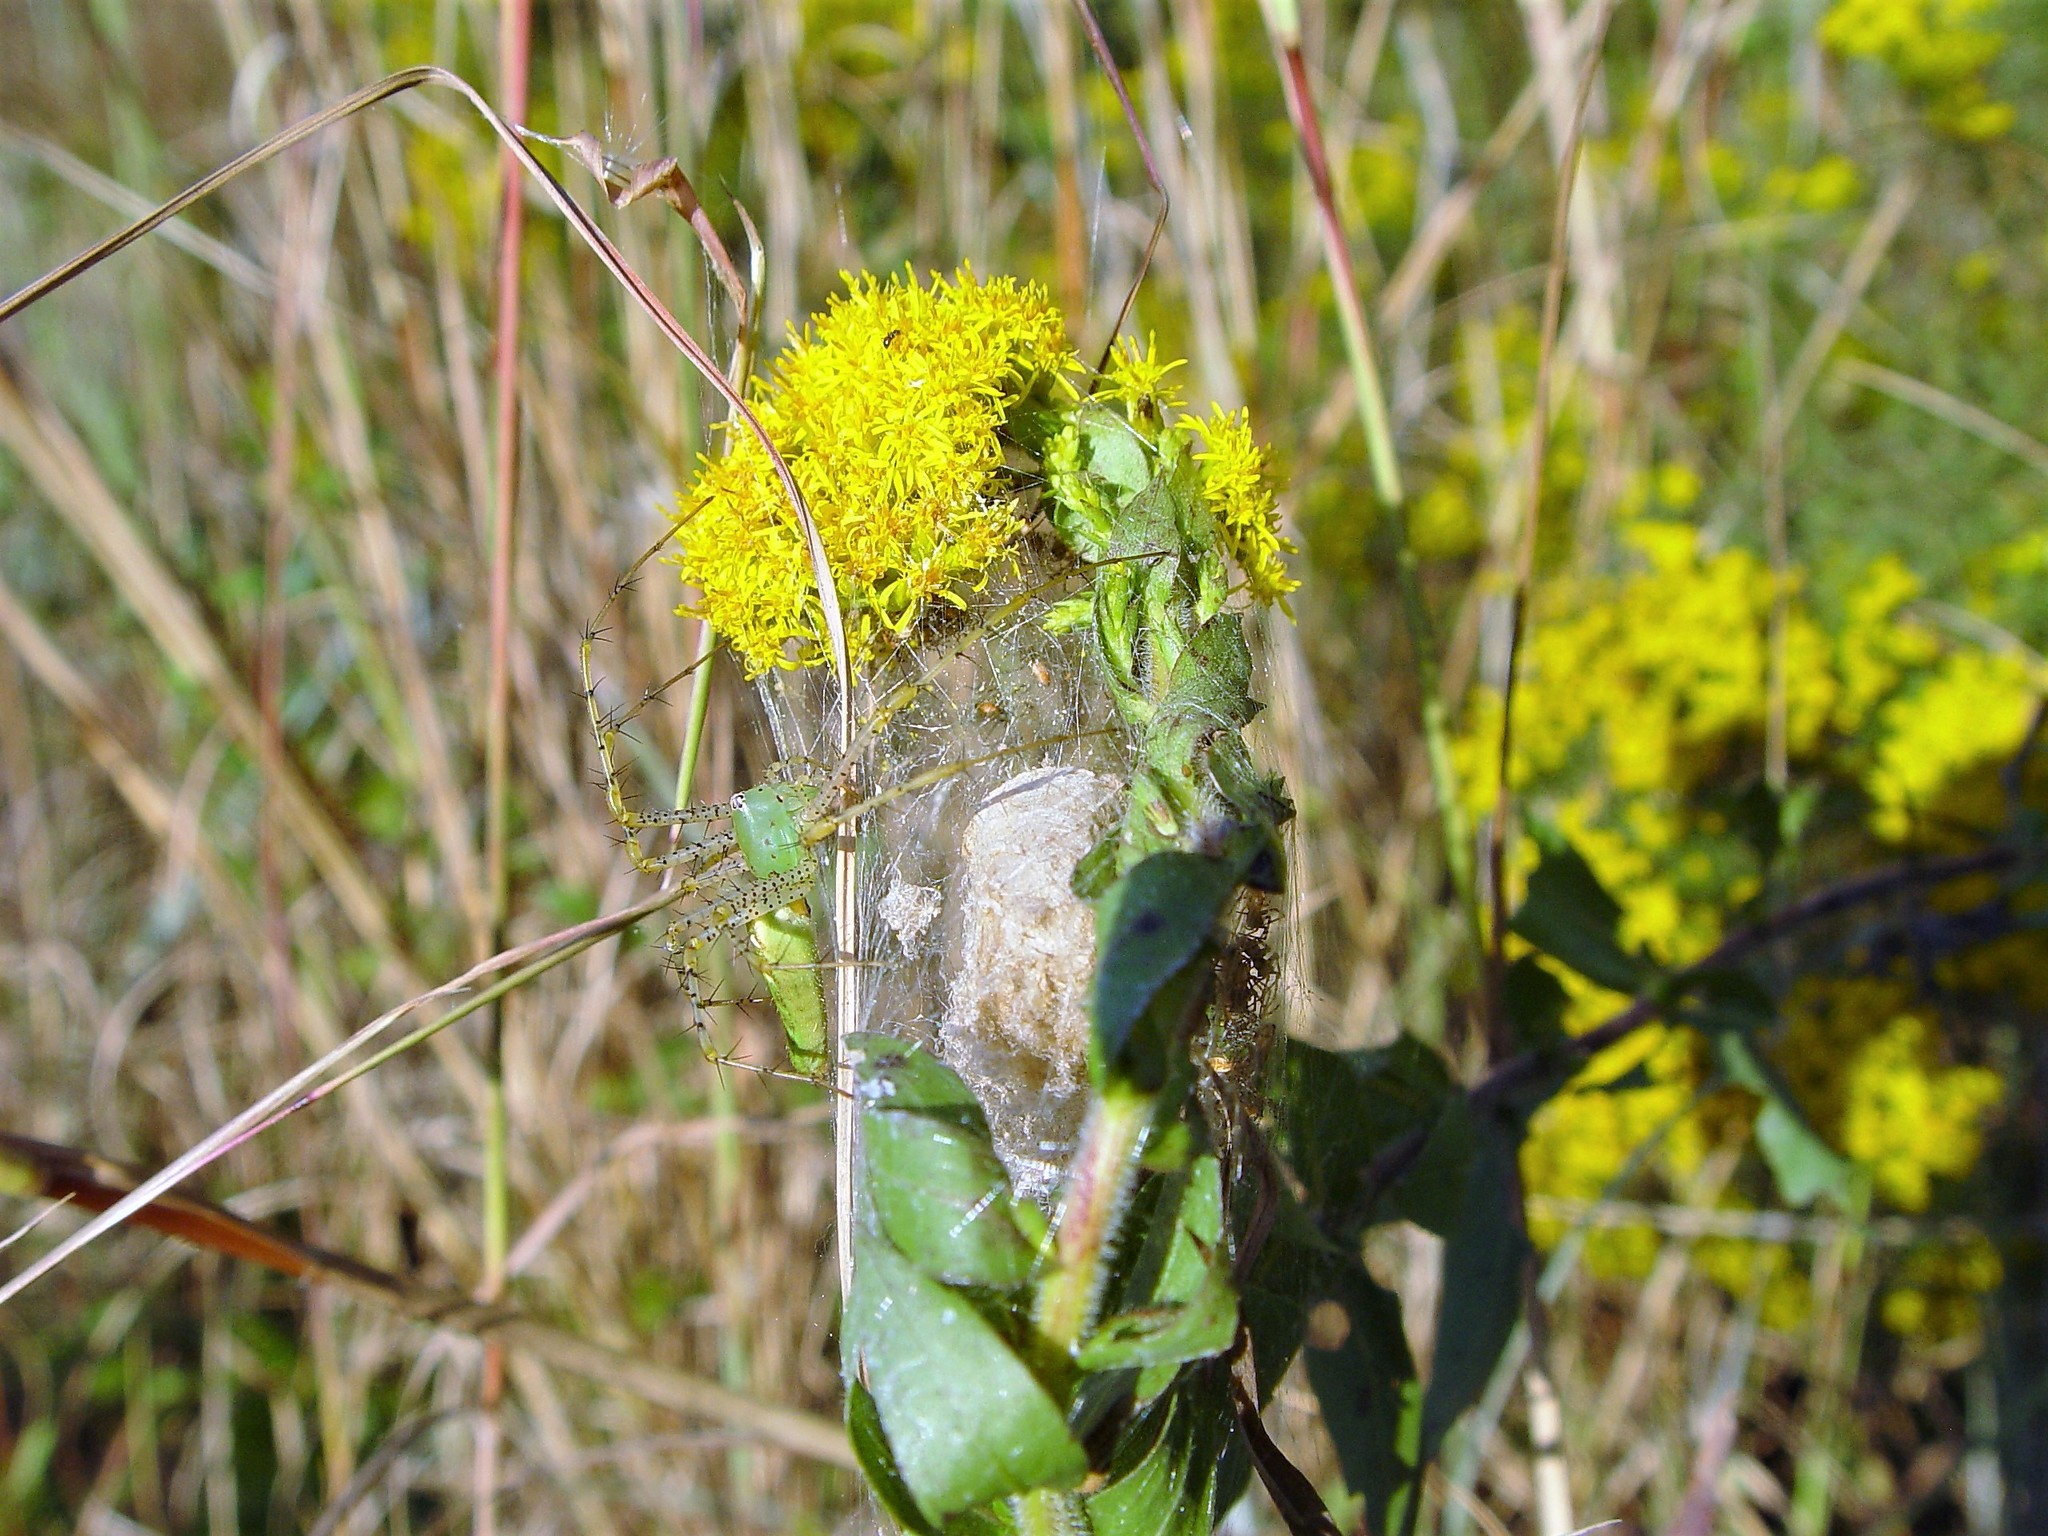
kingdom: Animalia
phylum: Arthropoda
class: Arachnida
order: Araneae
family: Oxyopidae
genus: Peucetia
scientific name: Peucetia viridans
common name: Lynx spiders
